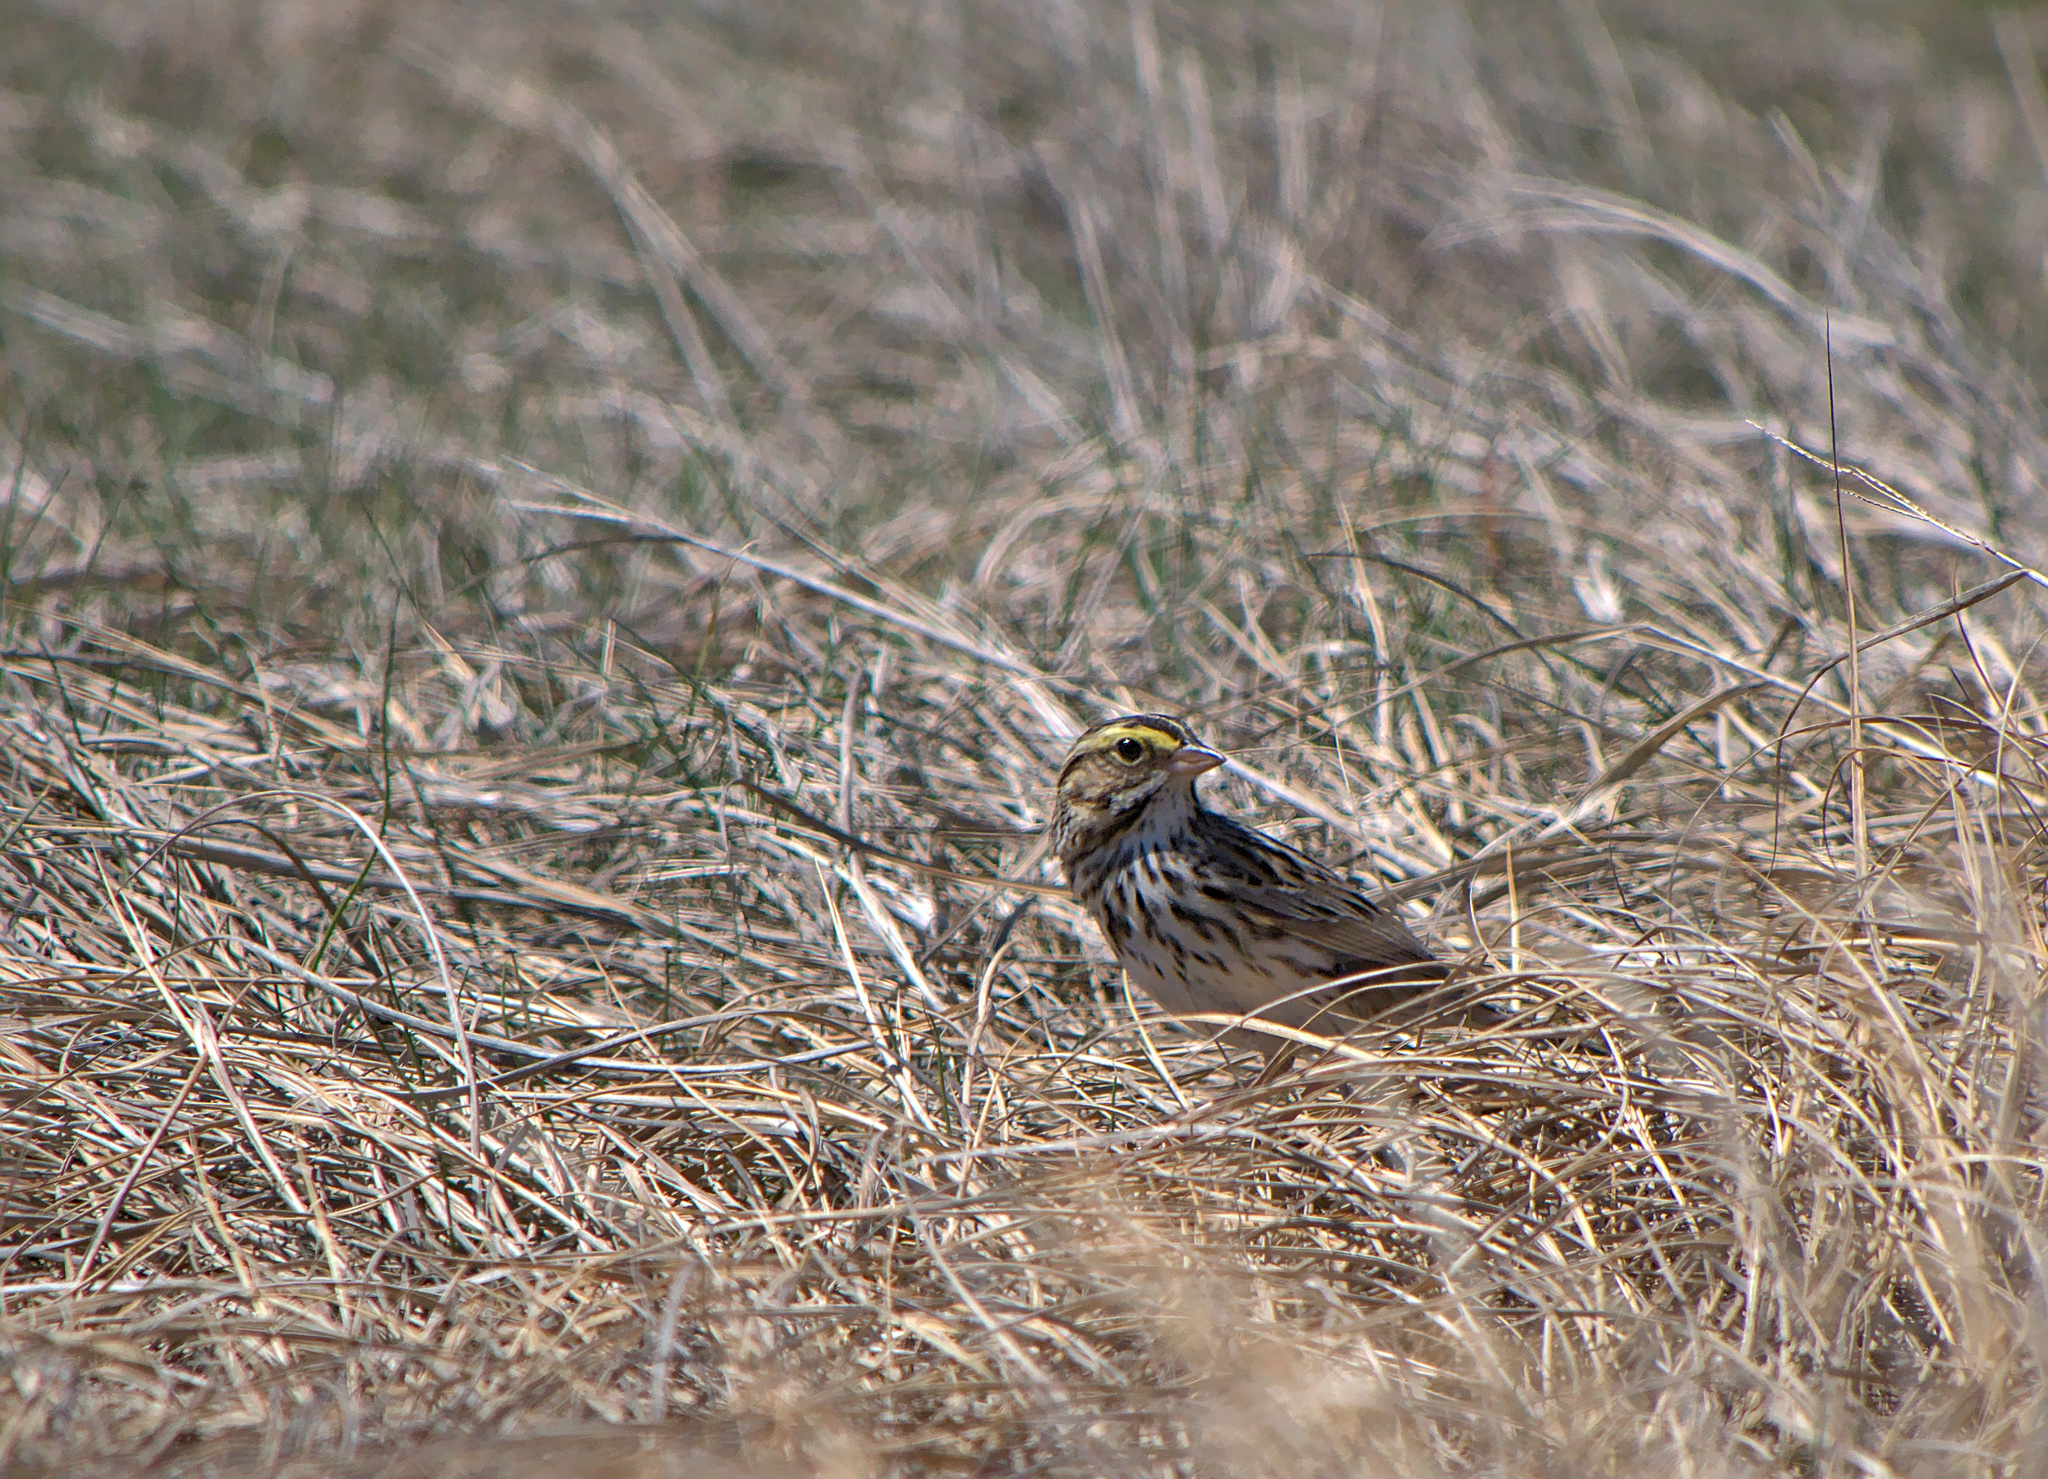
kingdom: Animalia
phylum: Chordata
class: Aves
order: Passeriformes
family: Passerellidae
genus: Passerculus
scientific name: Passerculus sandwichensis
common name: Savannah sparrow
